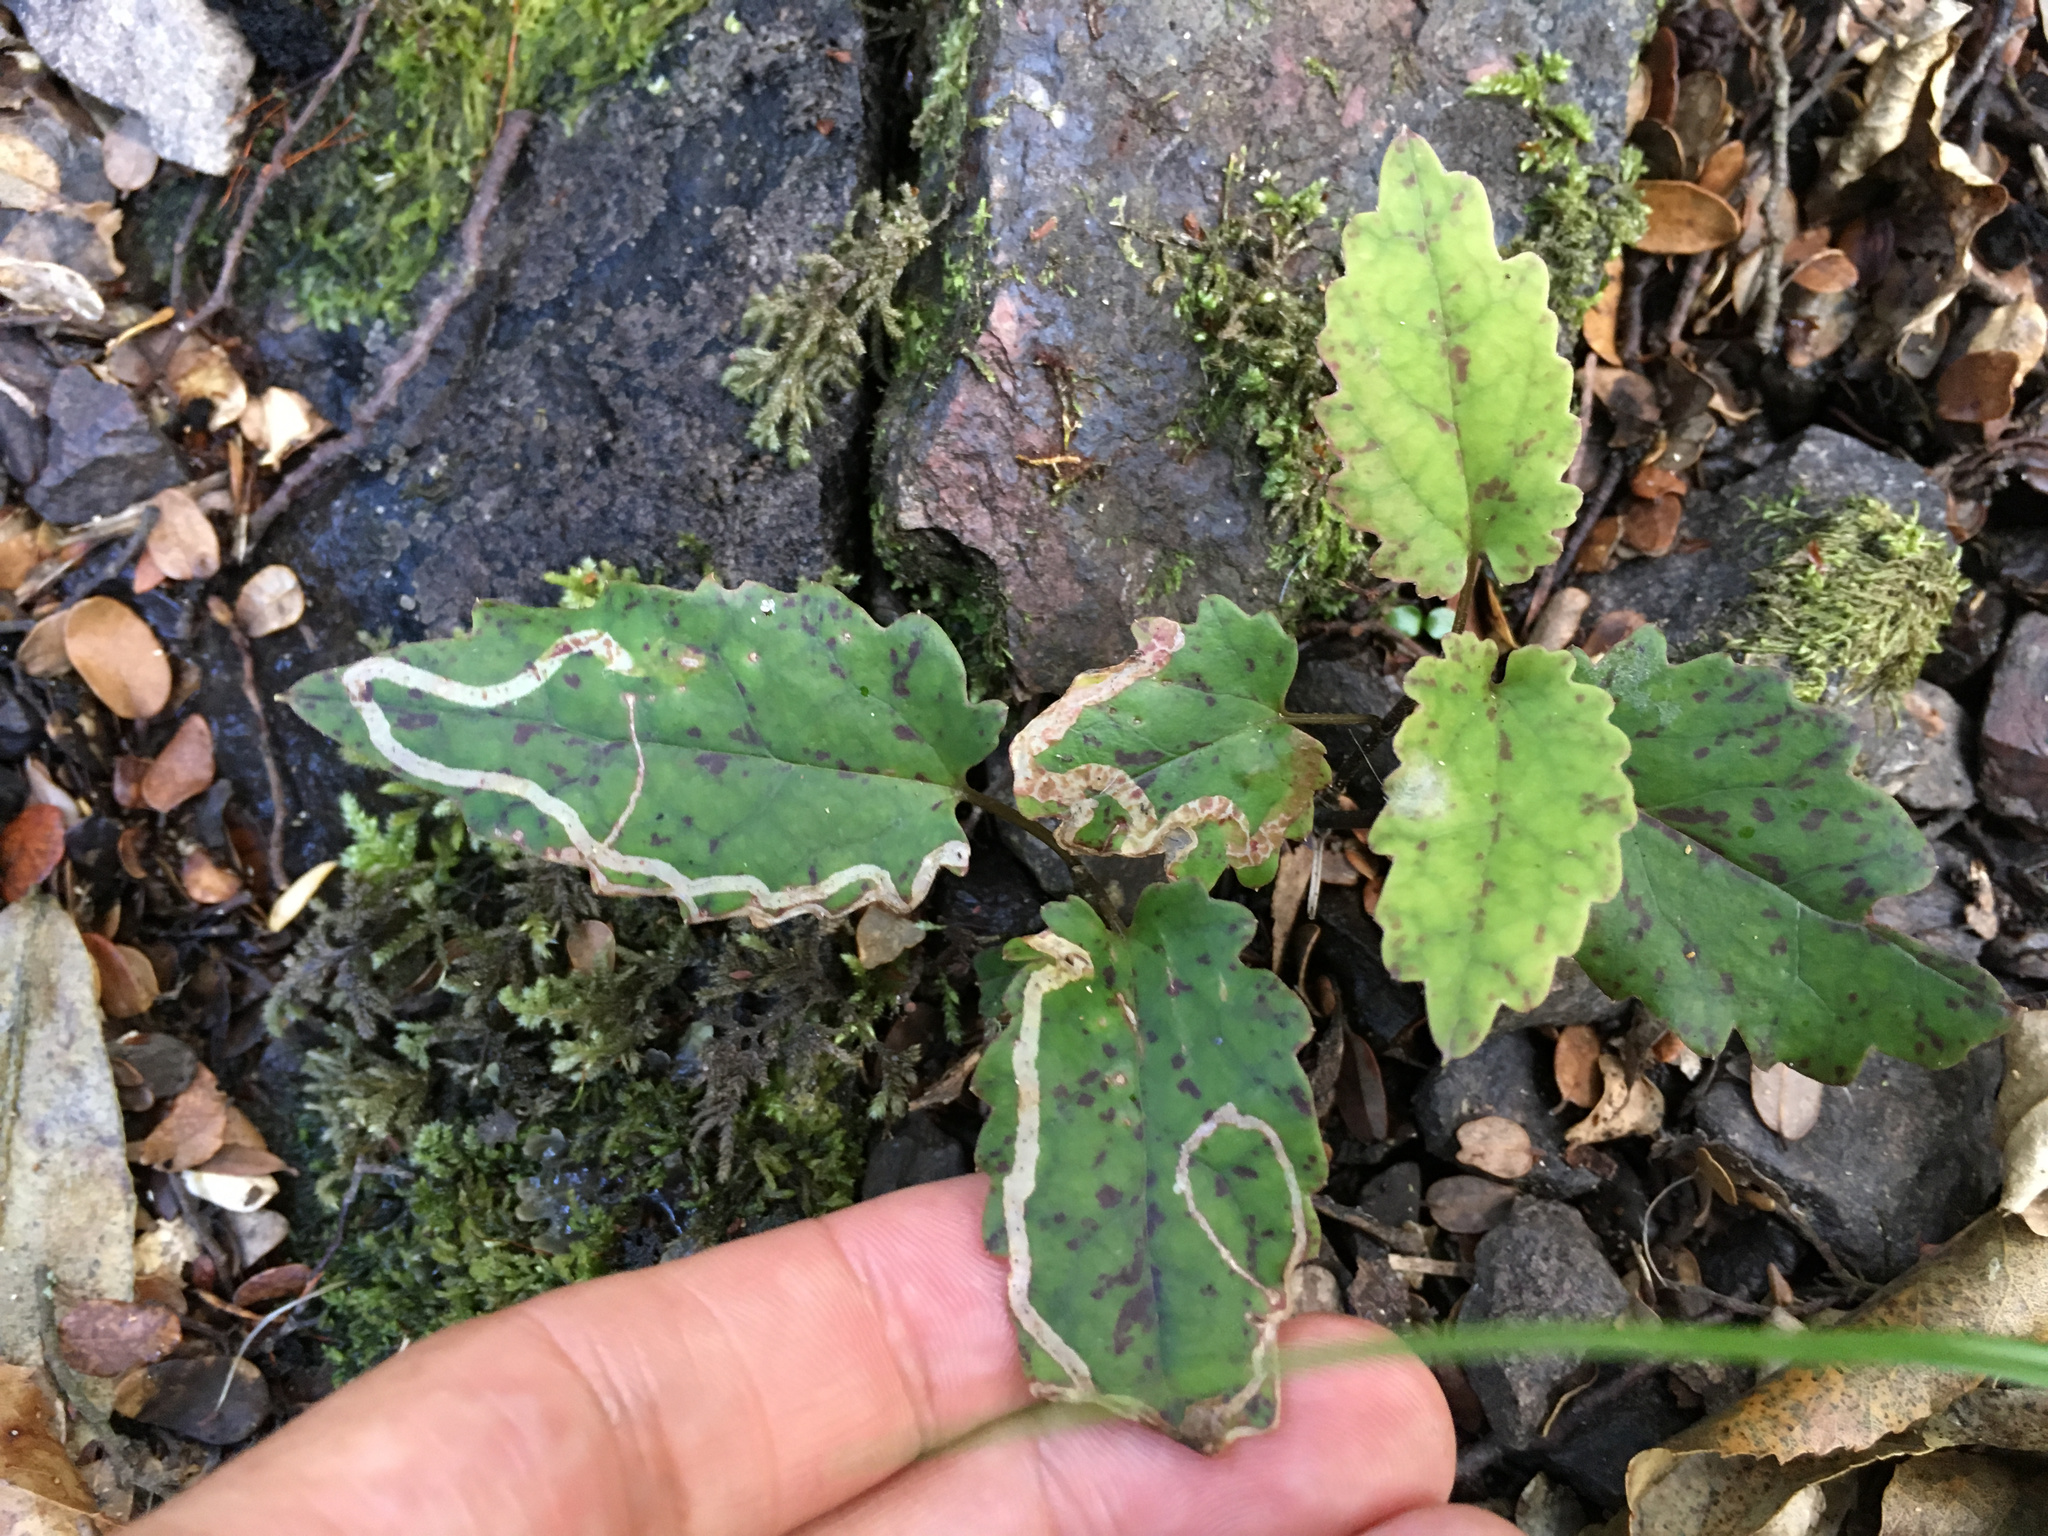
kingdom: Plantae
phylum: Tracheophyta
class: Magnoliopsida
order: Ranunculales
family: Ranunculaceae
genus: Clematis
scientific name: Clematis paniculata
